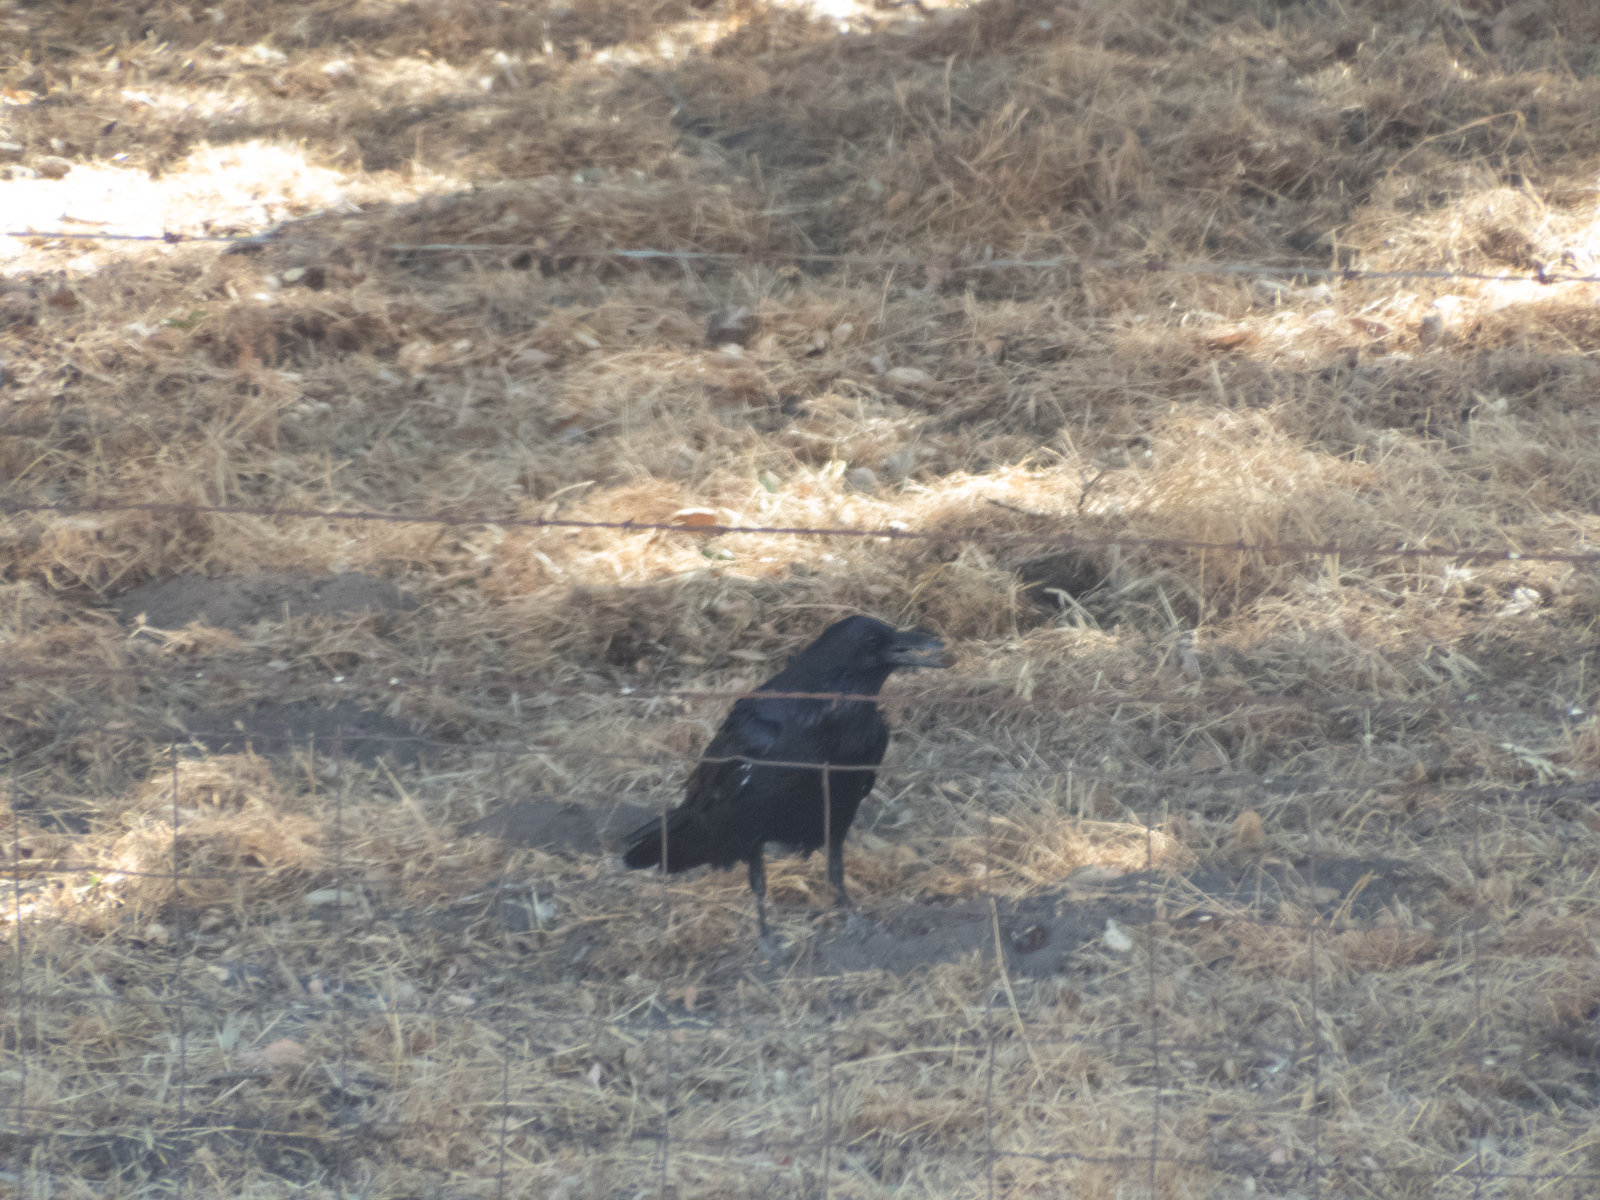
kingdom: Animalia
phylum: Chordata
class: Aves
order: Passeriformes
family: Corvidae
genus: Corvus
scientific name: Corvus corax
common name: Common raven
